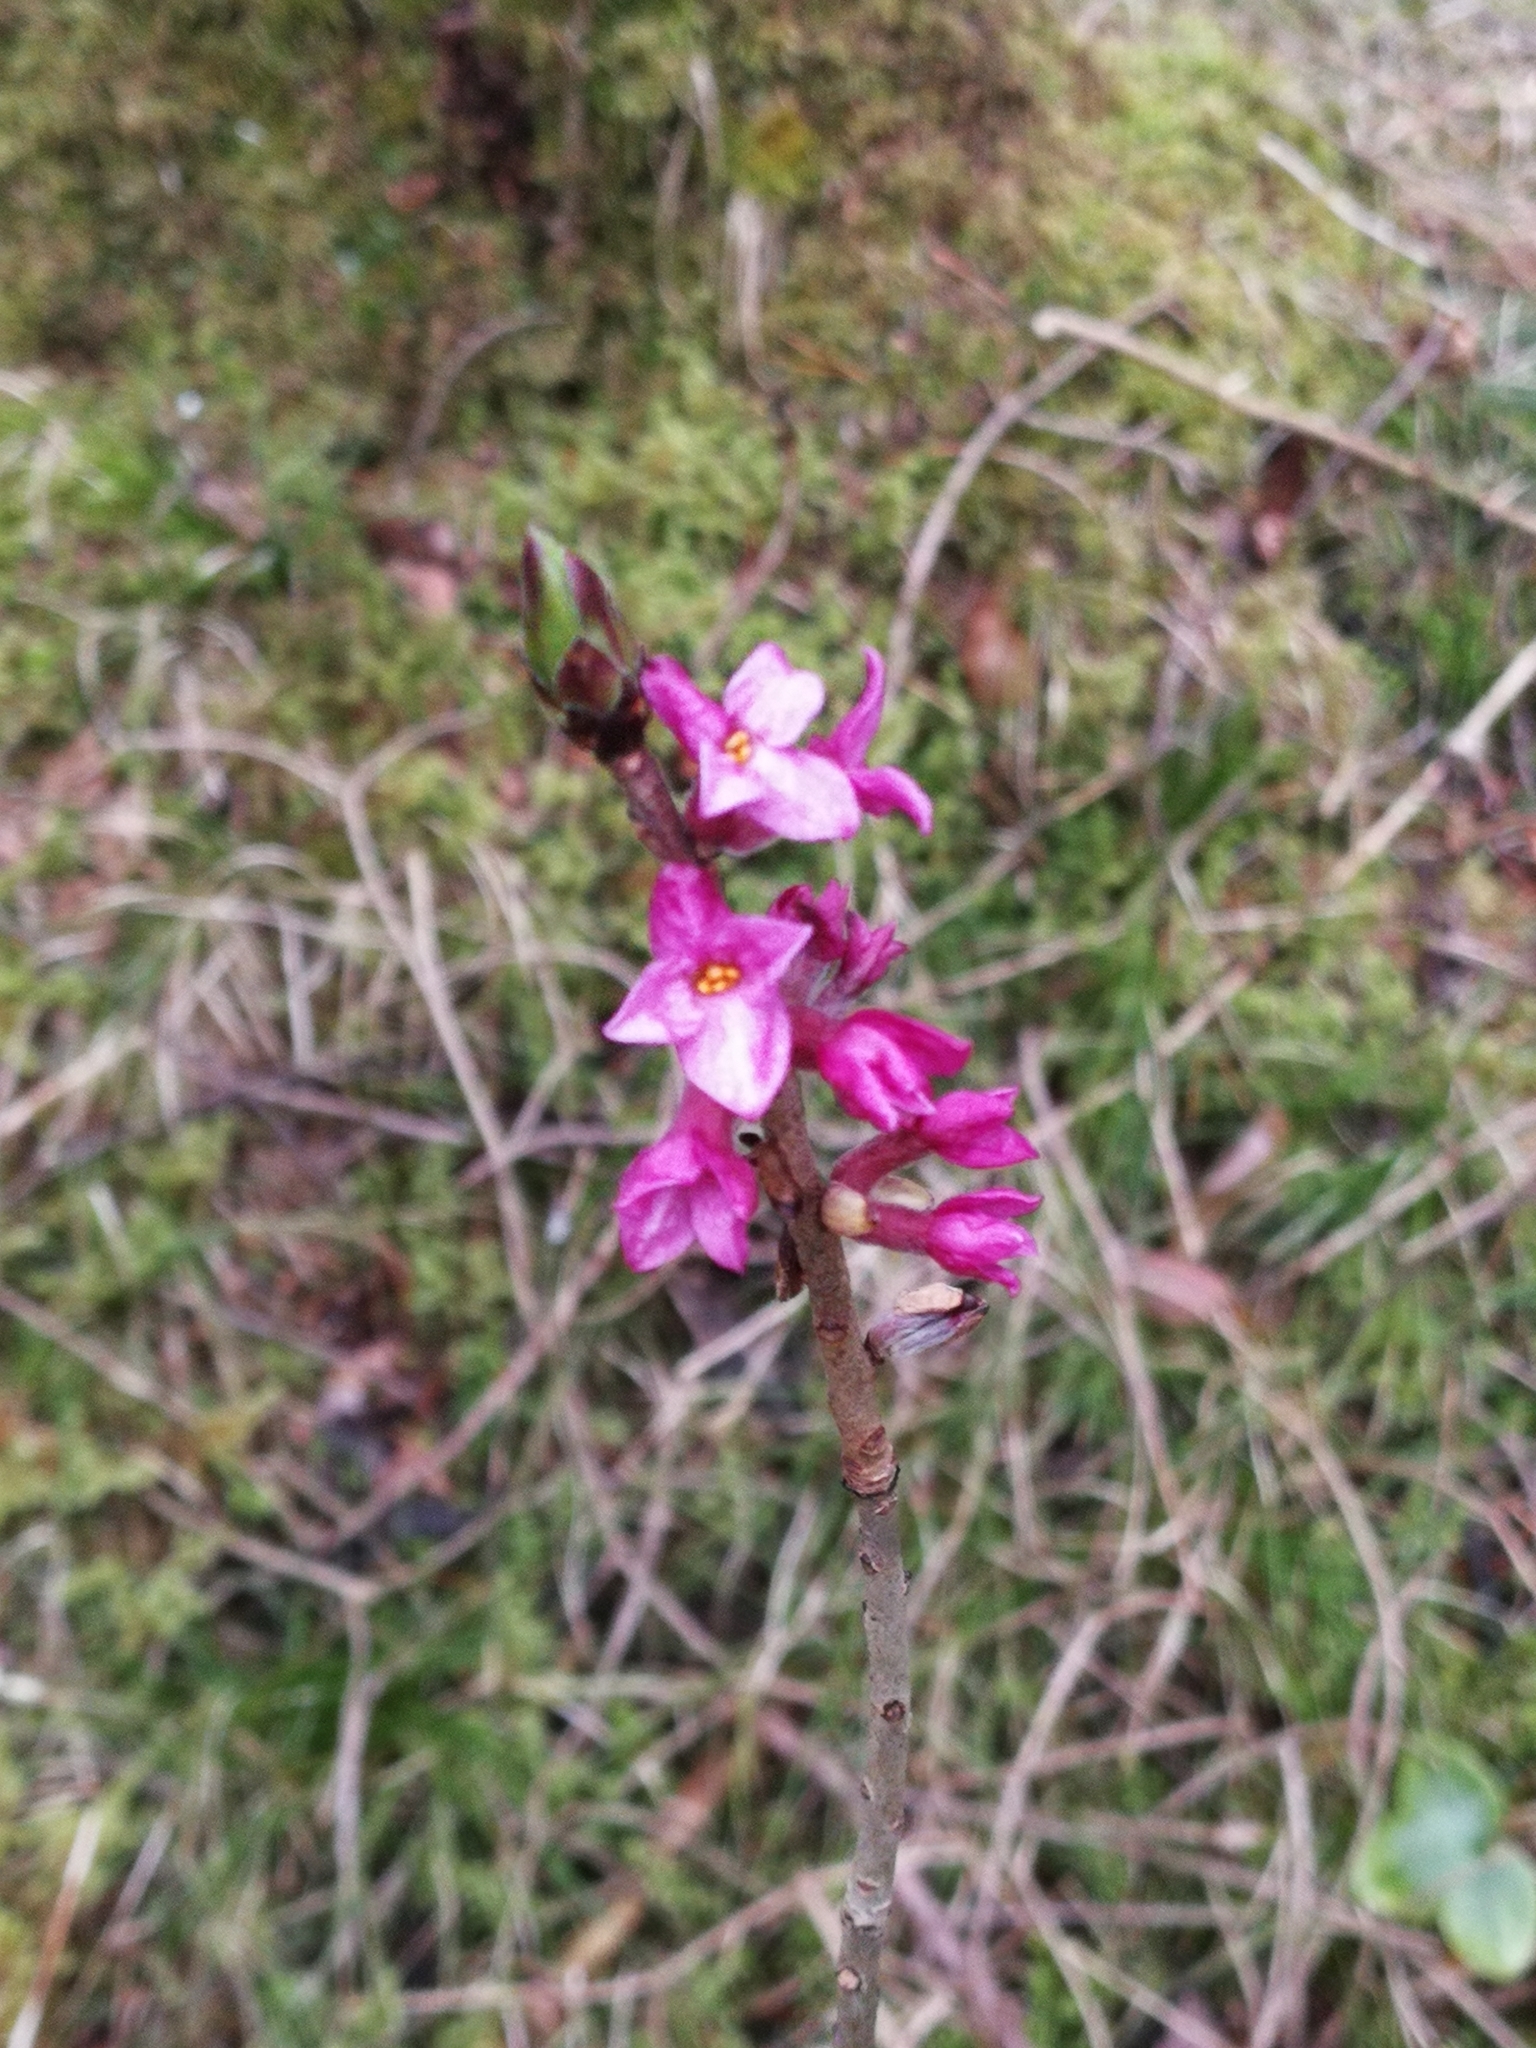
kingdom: Plantae
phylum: Tracheophyta
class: Magnoliopsida
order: Malvales
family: Thymelaeaceae
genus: Daphne
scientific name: Daphne mezereum
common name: Mezereon
